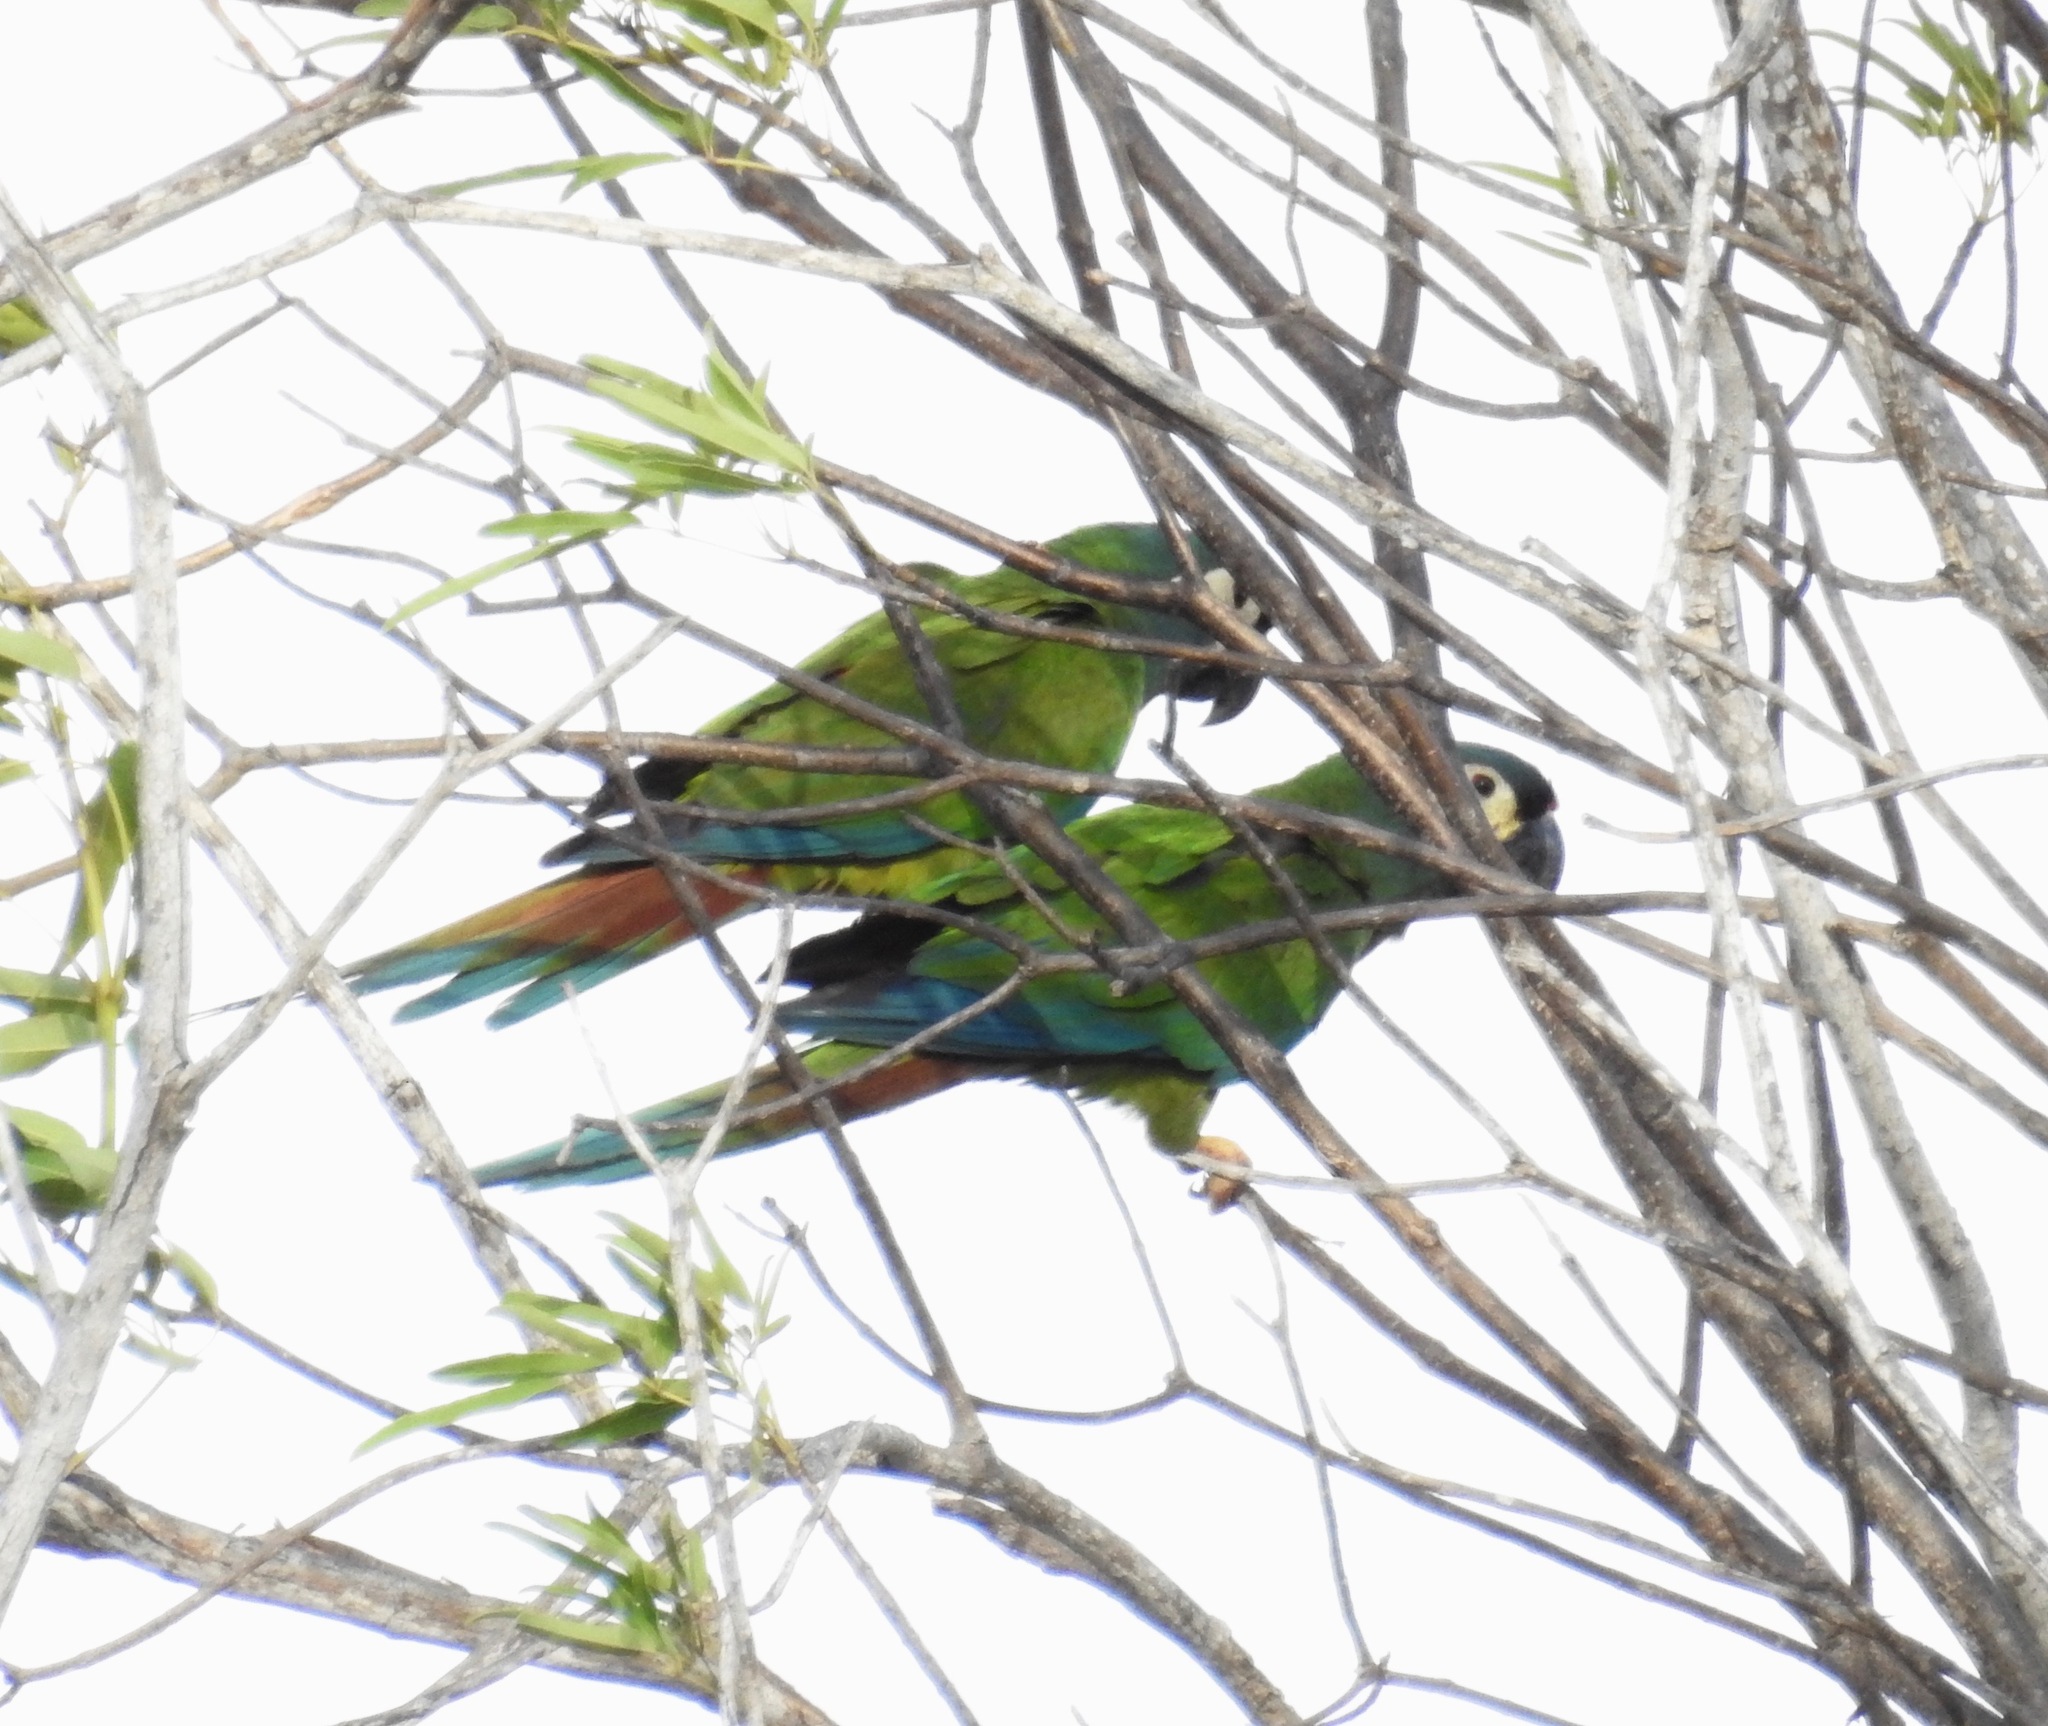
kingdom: Animalia
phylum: Chordata
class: Aves
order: Psittaciformes
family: Psittacidae
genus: Primolius
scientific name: Primolius maracana
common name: Blue-winged macaw
